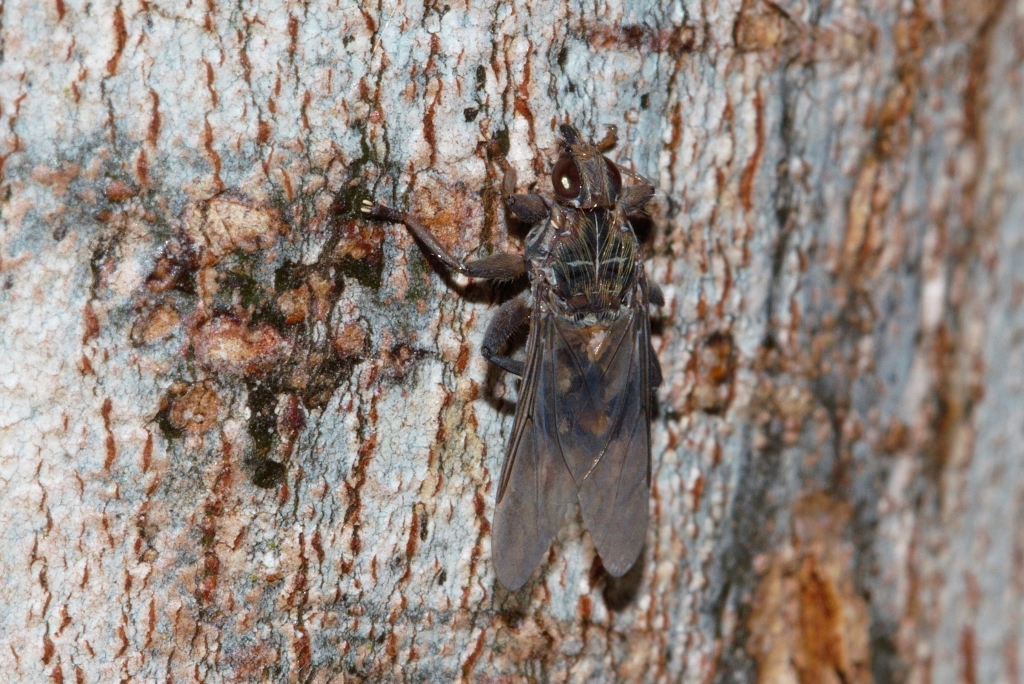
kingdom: Animalia
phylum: Arthropoda
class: Insecta
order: Diptera
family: Hippoboscidae
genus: Pseudolynchia
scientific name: Pseudolynchia canariensis
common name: Louse fly
